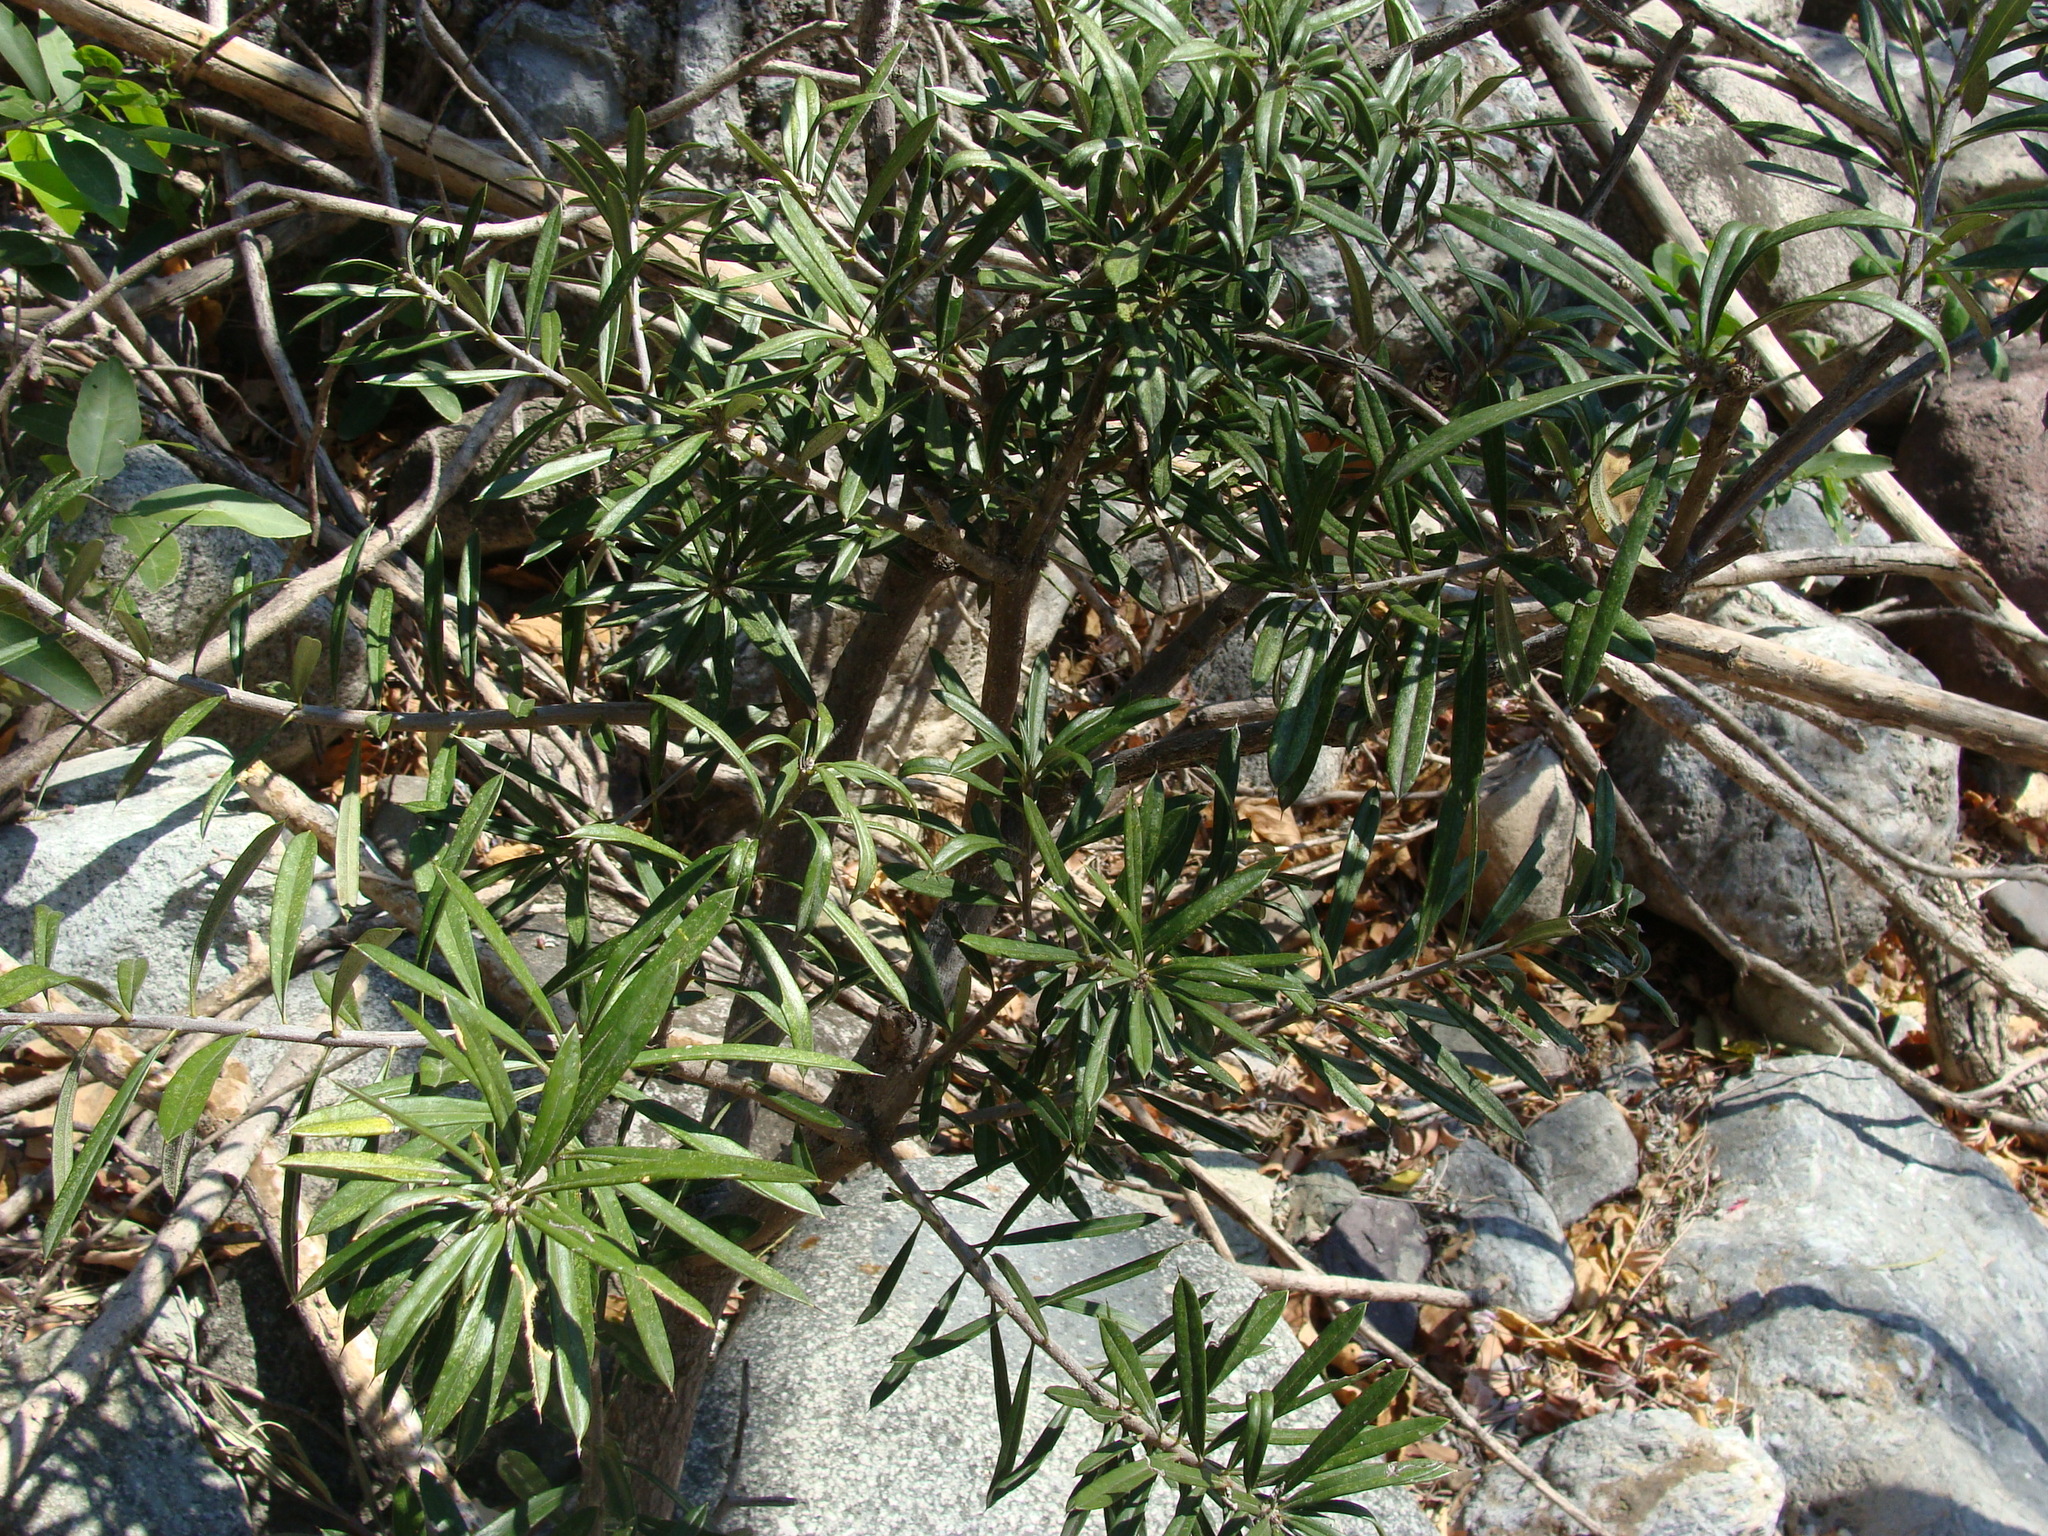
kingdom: Plantae
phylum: Tracheophyta
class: Magnoliopsida
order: Ericales
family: Primulaceae
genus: Bonellia
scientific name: Bonellia macrocarpa
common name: Primrose
